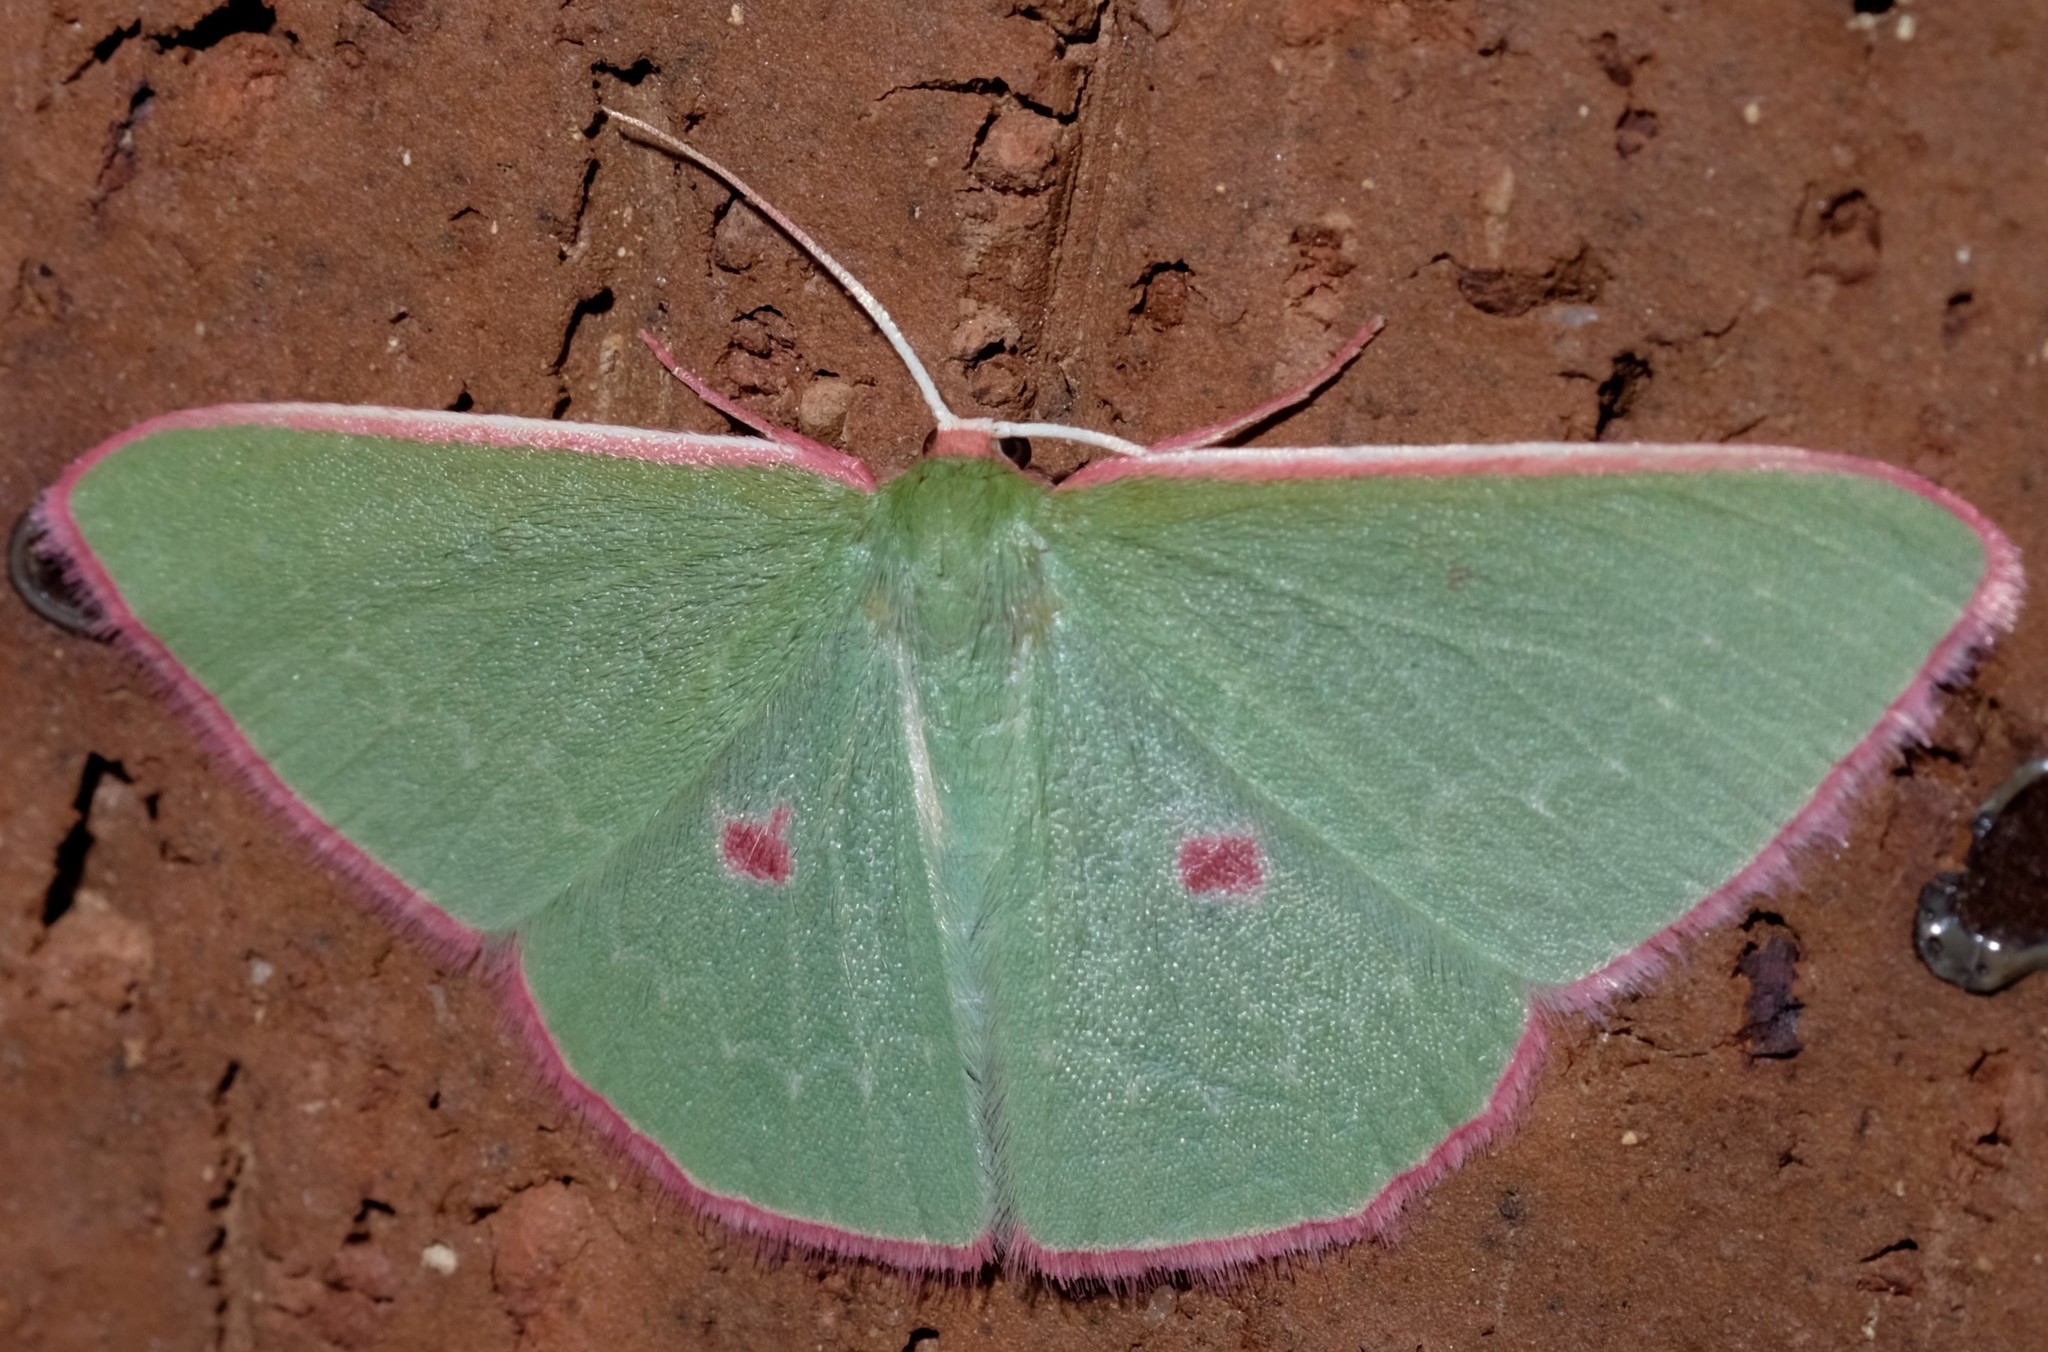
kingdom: Animalia
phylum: Arthropoda
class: Insecta
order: Lepidoptera
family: Geometridae
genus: Chlorocoma
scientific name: Chlorocoma cadmaria
